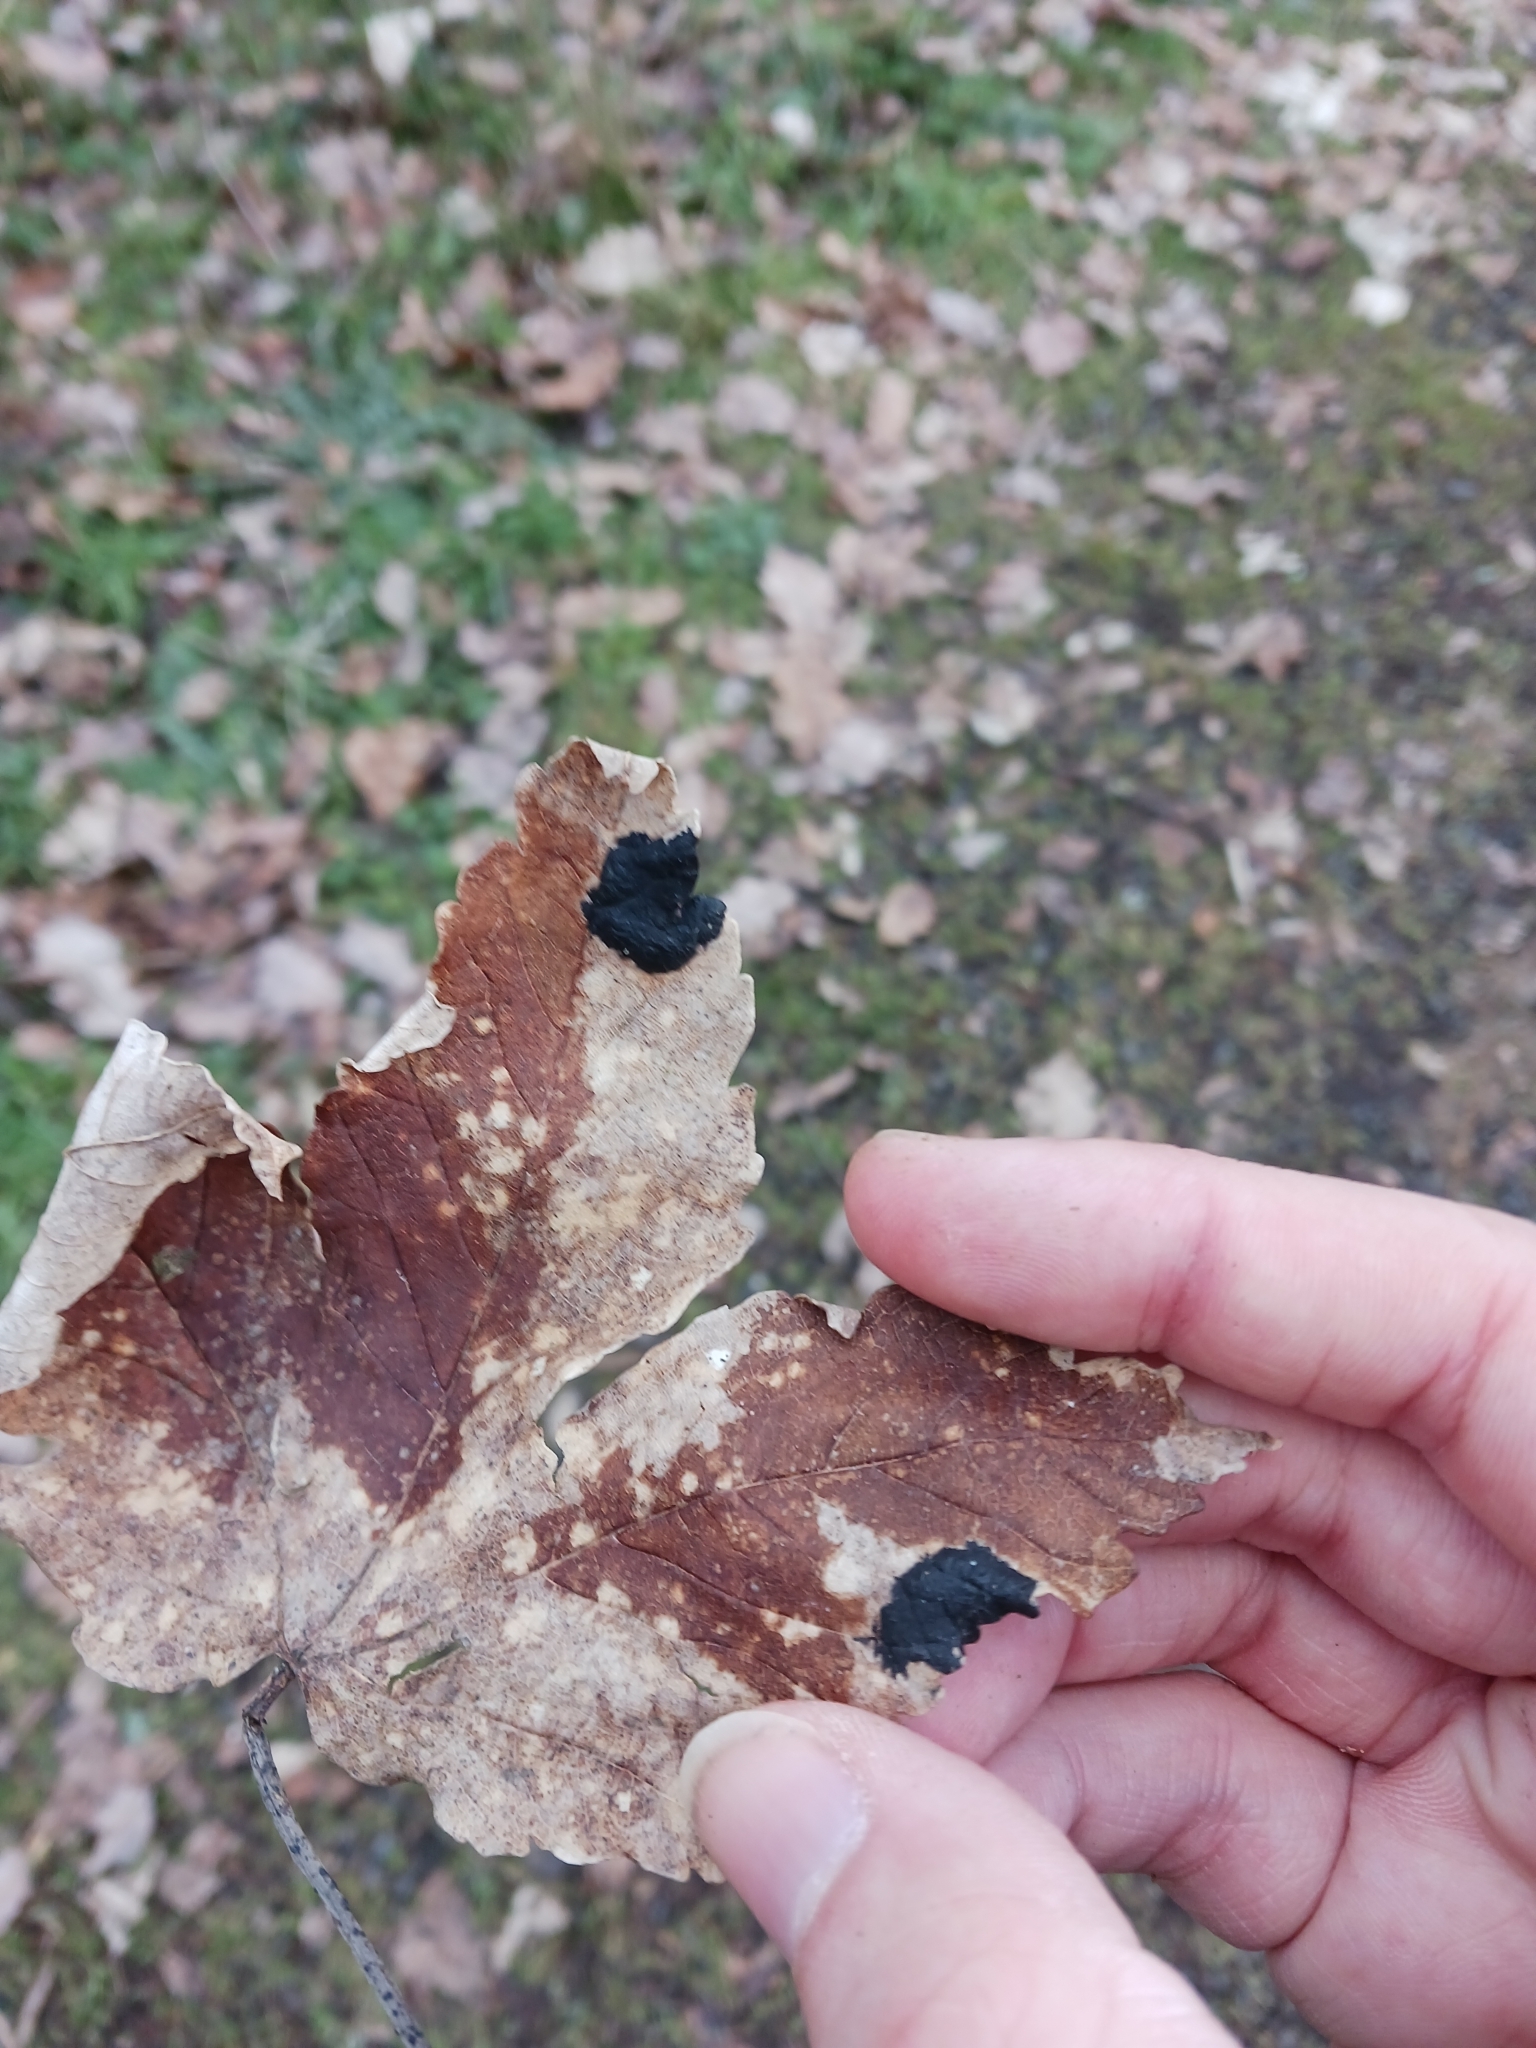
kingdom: Fungi
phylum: Ascomycota
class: Leotiomycetes
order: Rhytismatales
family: Rhytismataceae
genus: Rhytisma
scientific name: Rhytisma acerinum
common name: European tar spot
